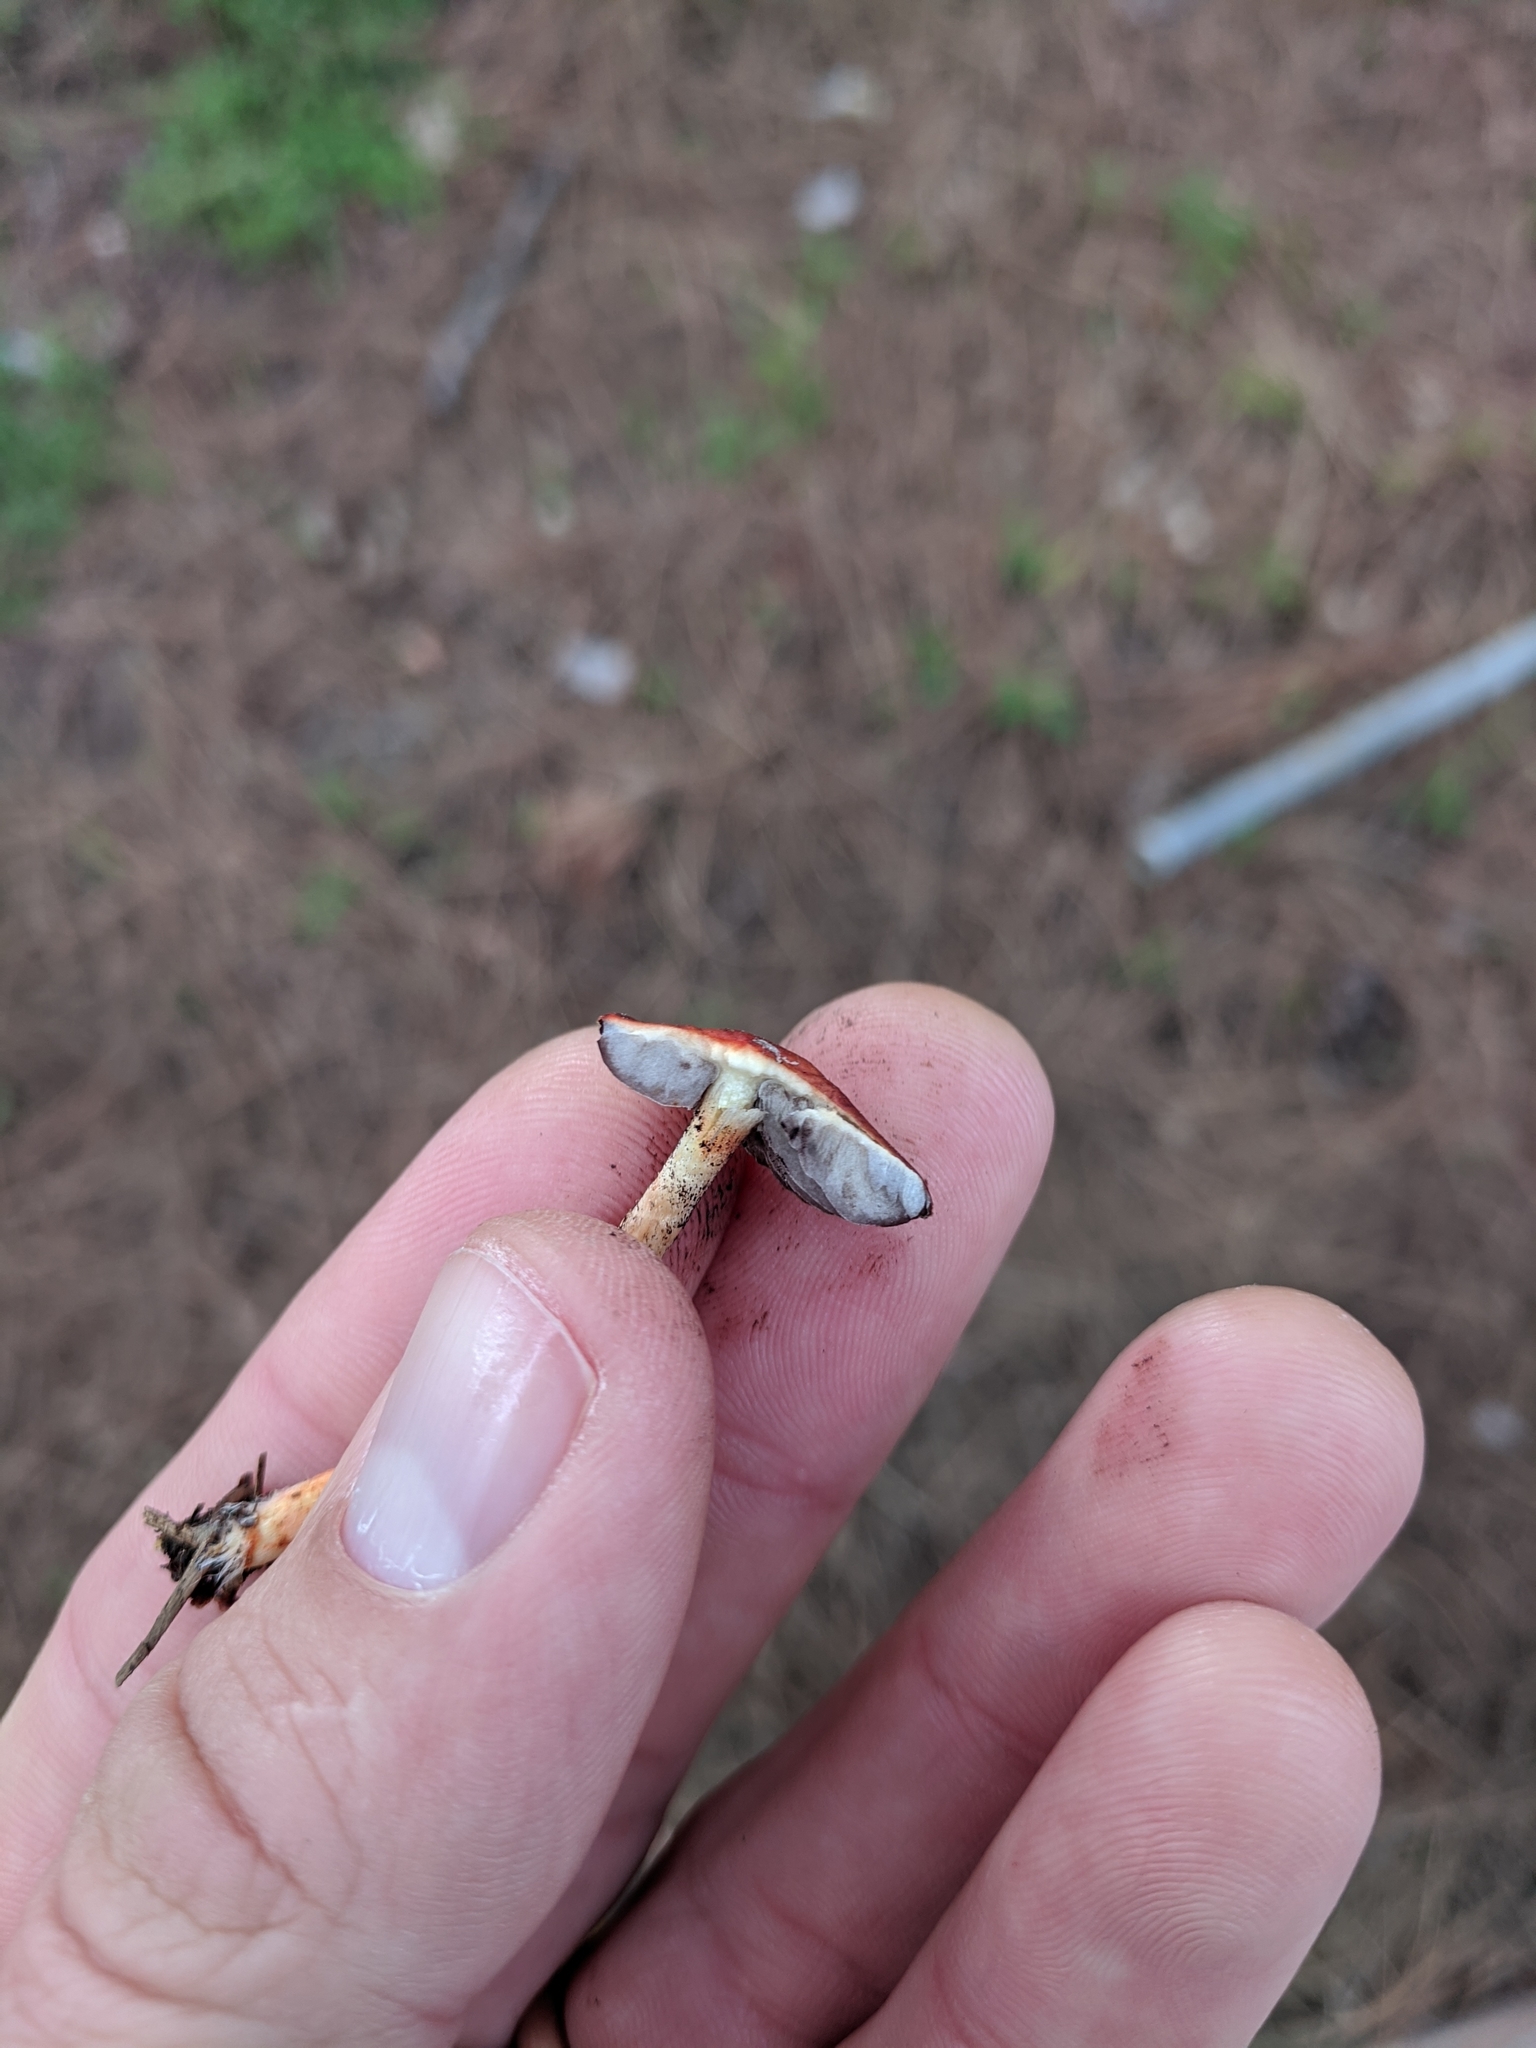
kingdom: Fungi
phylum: Basidiomycota
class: Agaricomycetes
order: Agaricales
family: Strophariaceae
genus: Leratiomyces
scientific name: Leratiomyces ceres
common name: Redlead roundhead
